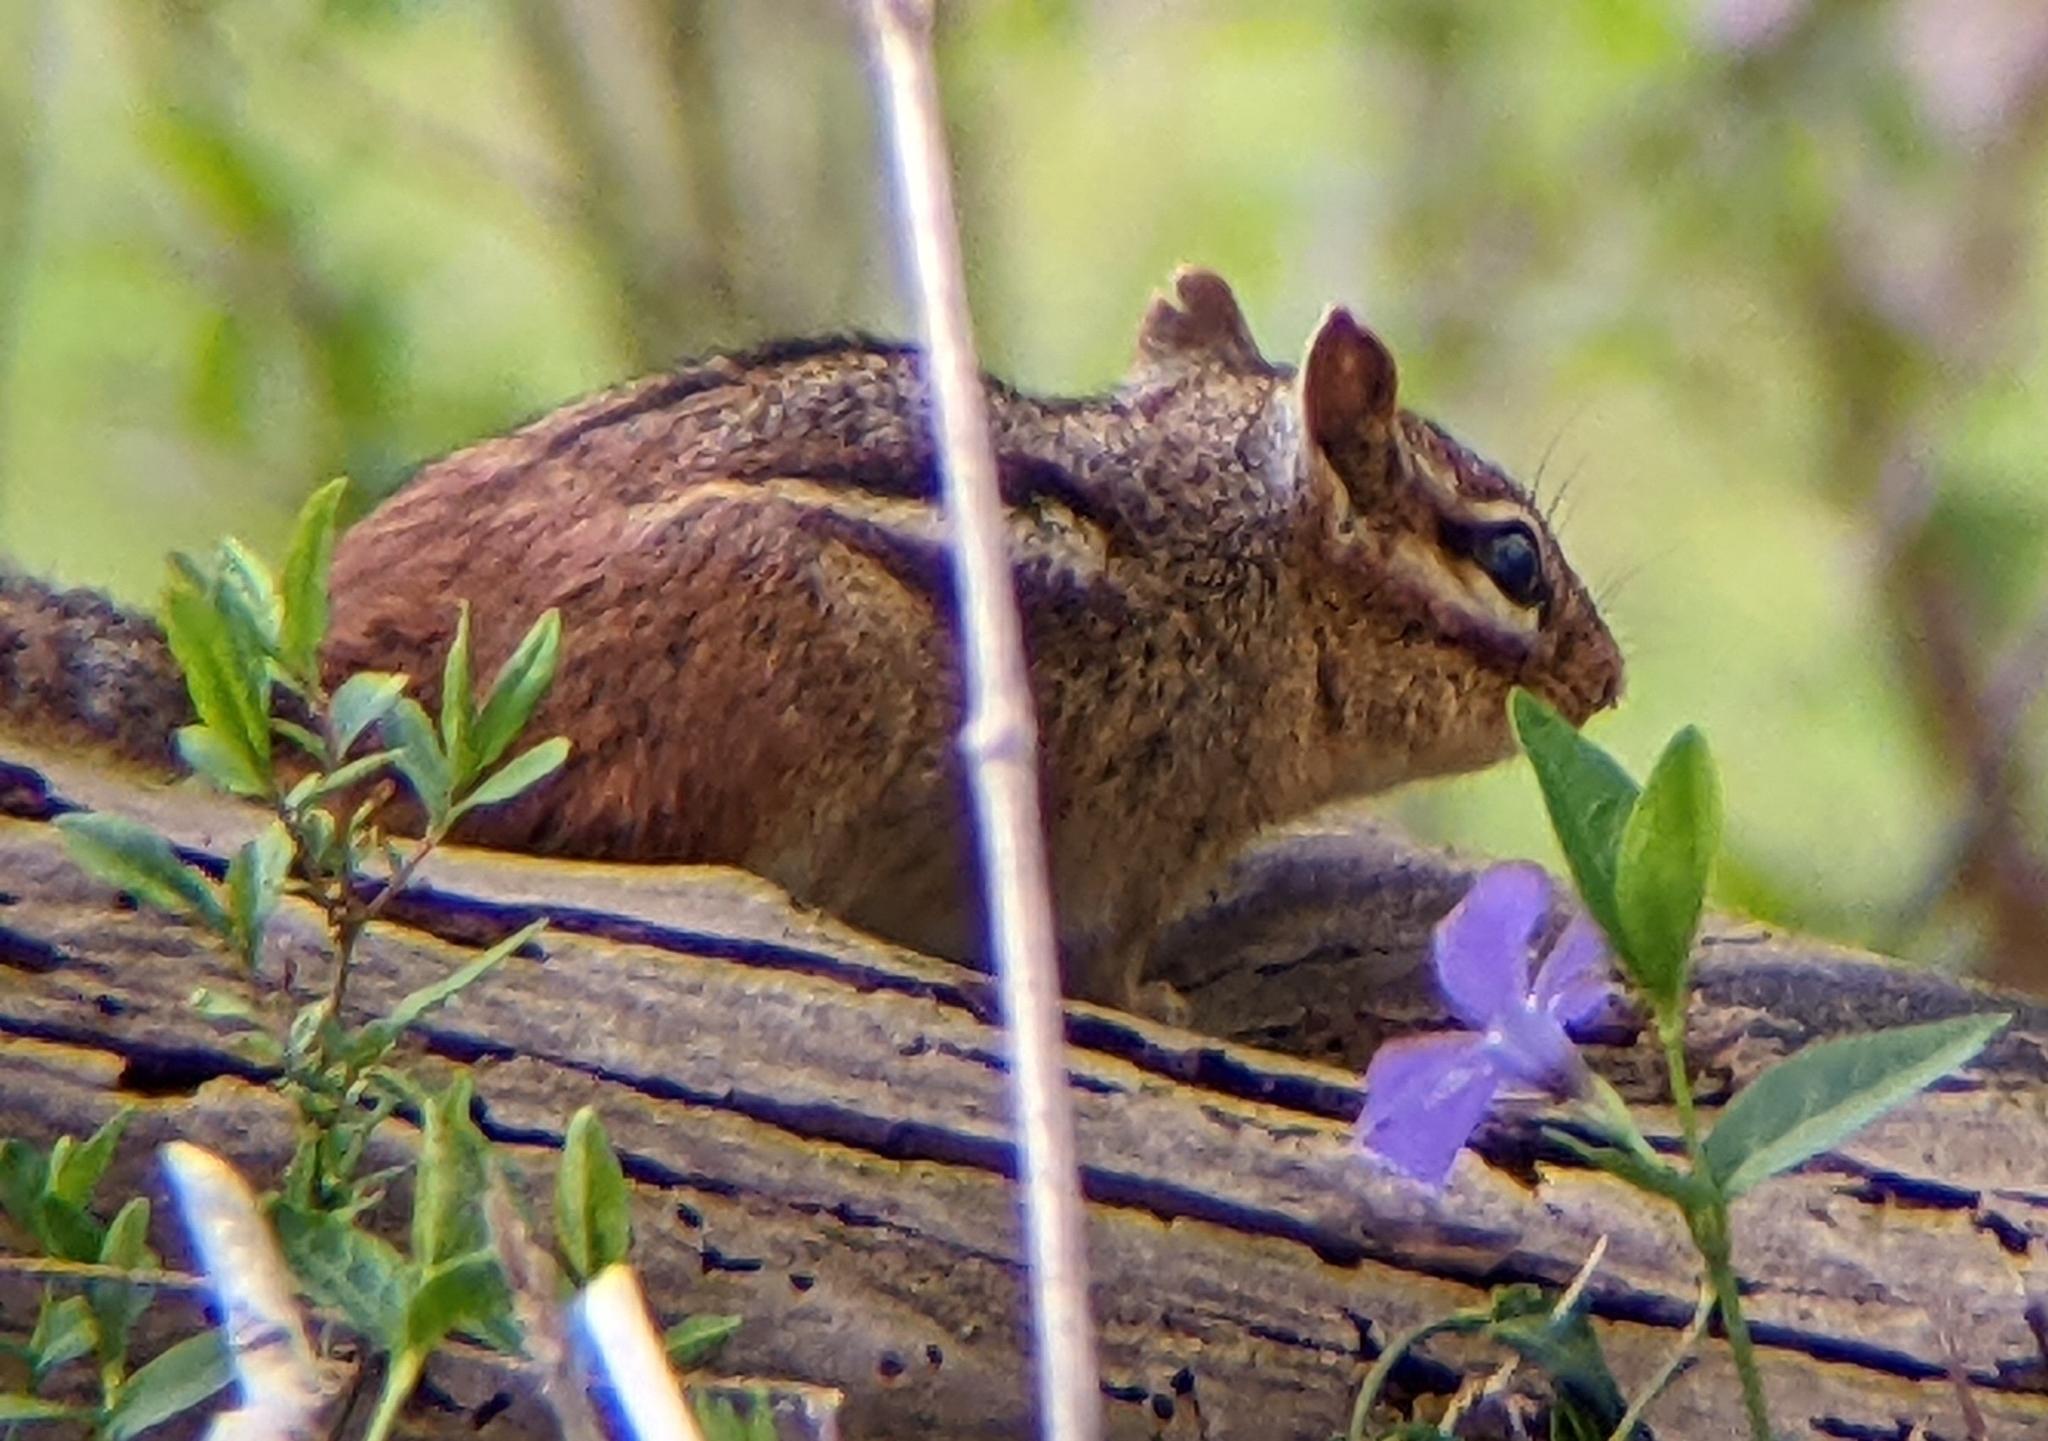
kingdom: Animalia
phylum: Chordata
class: Mammalia
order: Rodentia
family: Sciuridae
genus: Tamias
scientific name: Tamias striatus
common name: Eastern chipmunk
